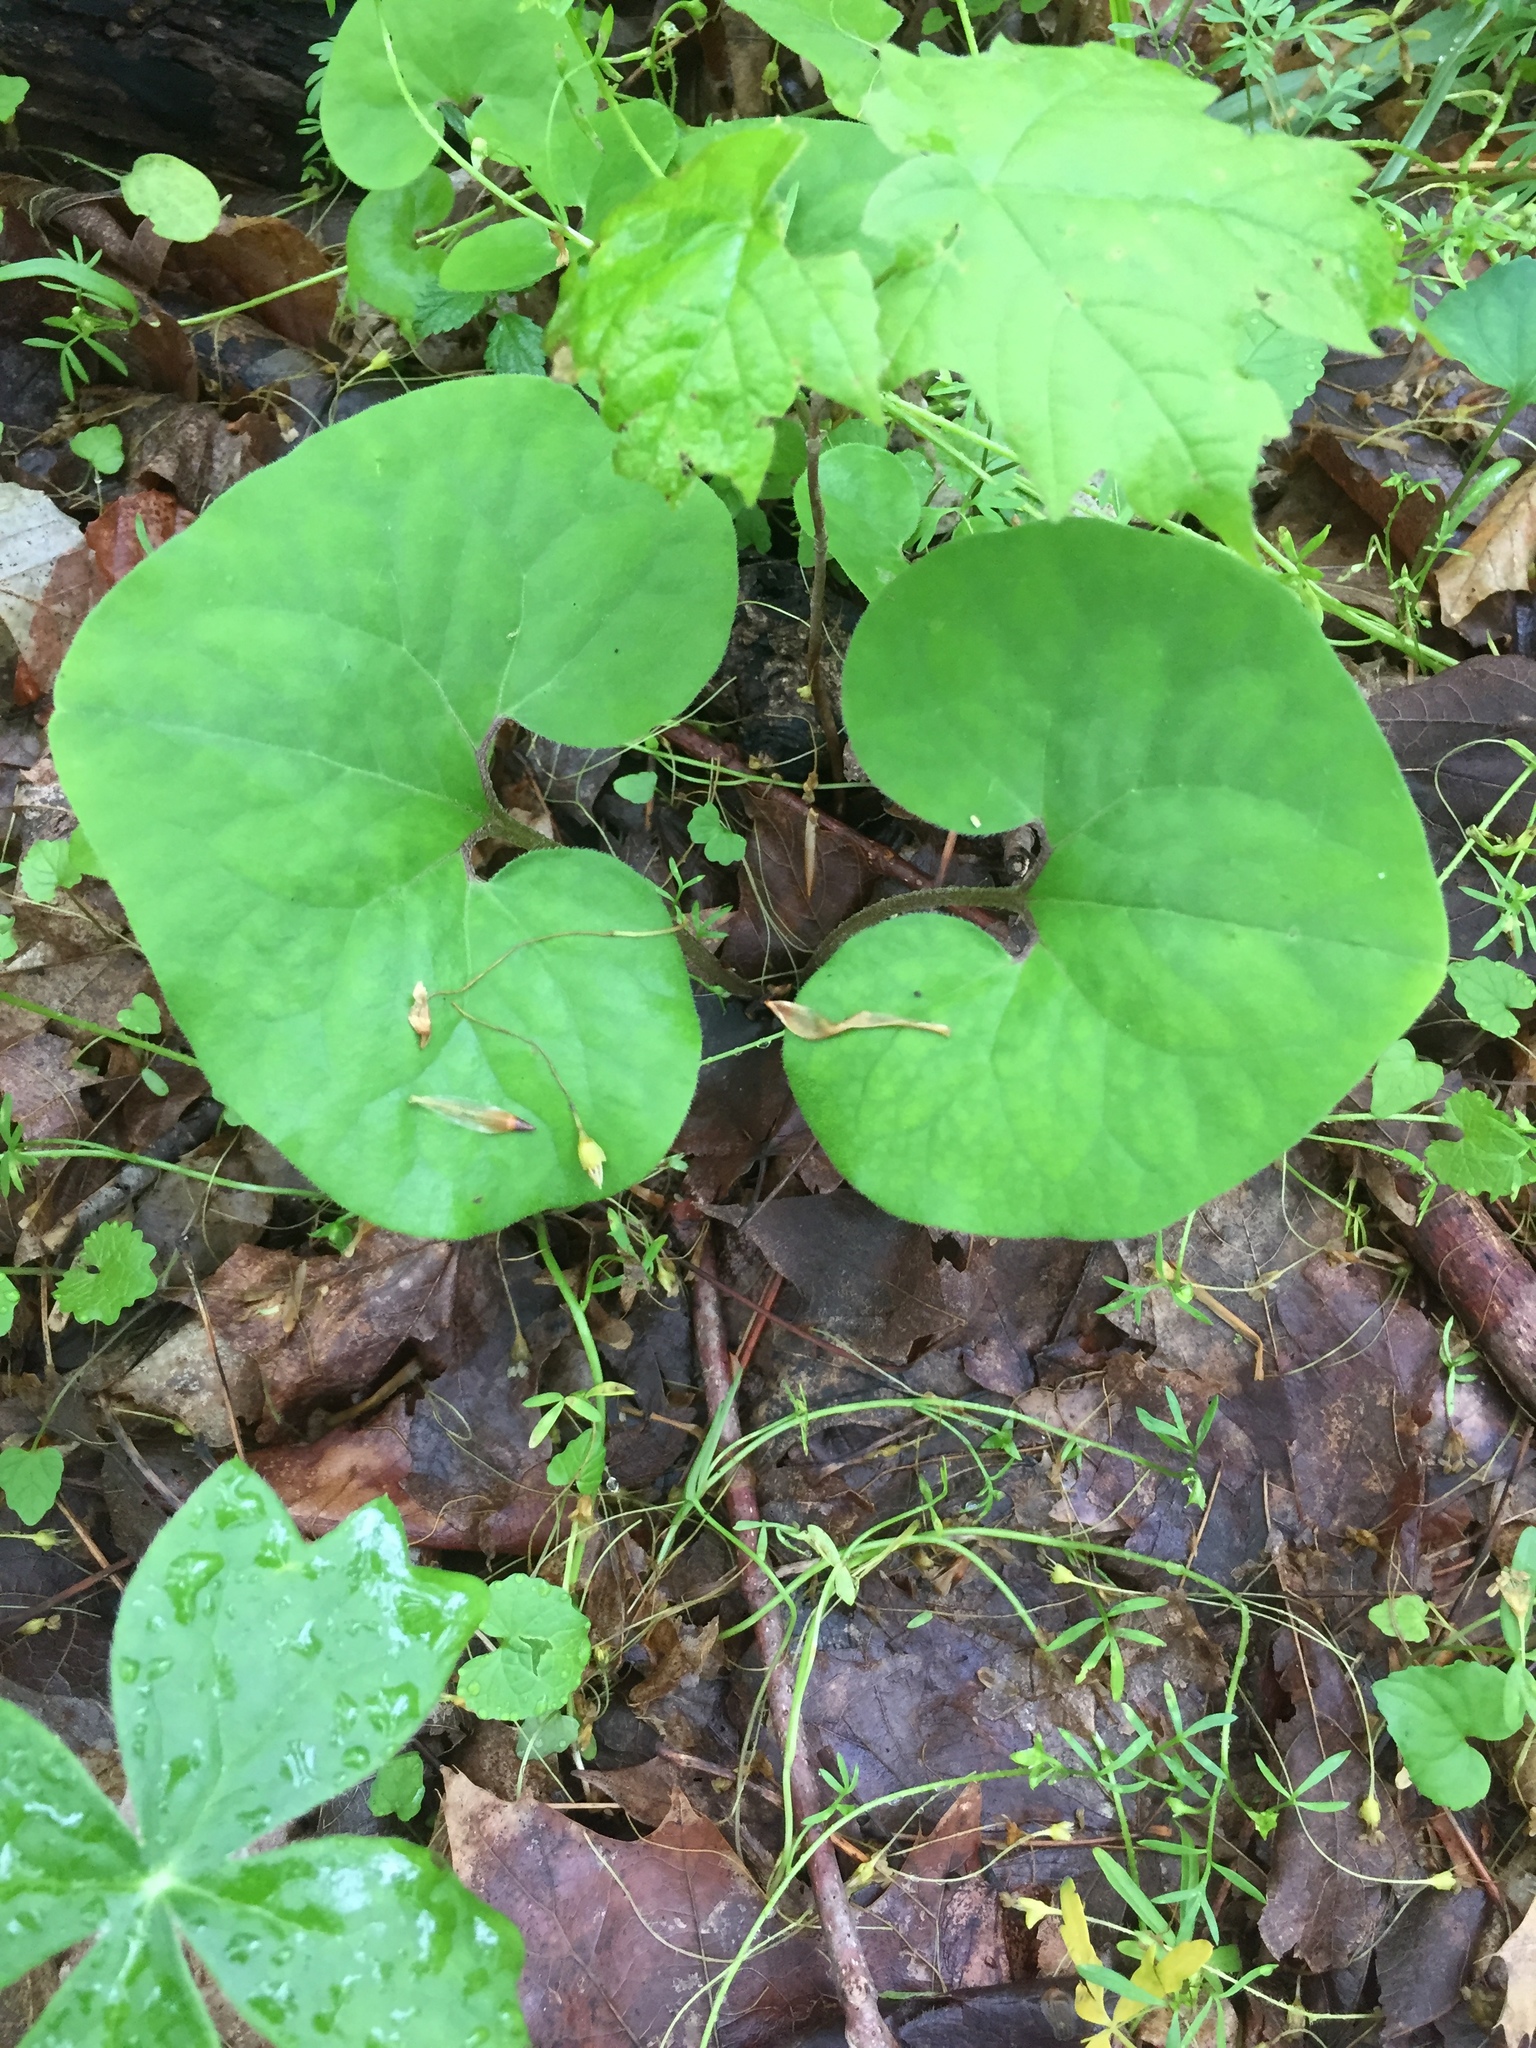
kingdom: Plantae
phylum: Tracheophyta
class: Magnoliopsida
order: Piperales
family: Aristolochiaceae
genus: Asarum
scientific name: Asarum canadense
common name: Wild ginger
